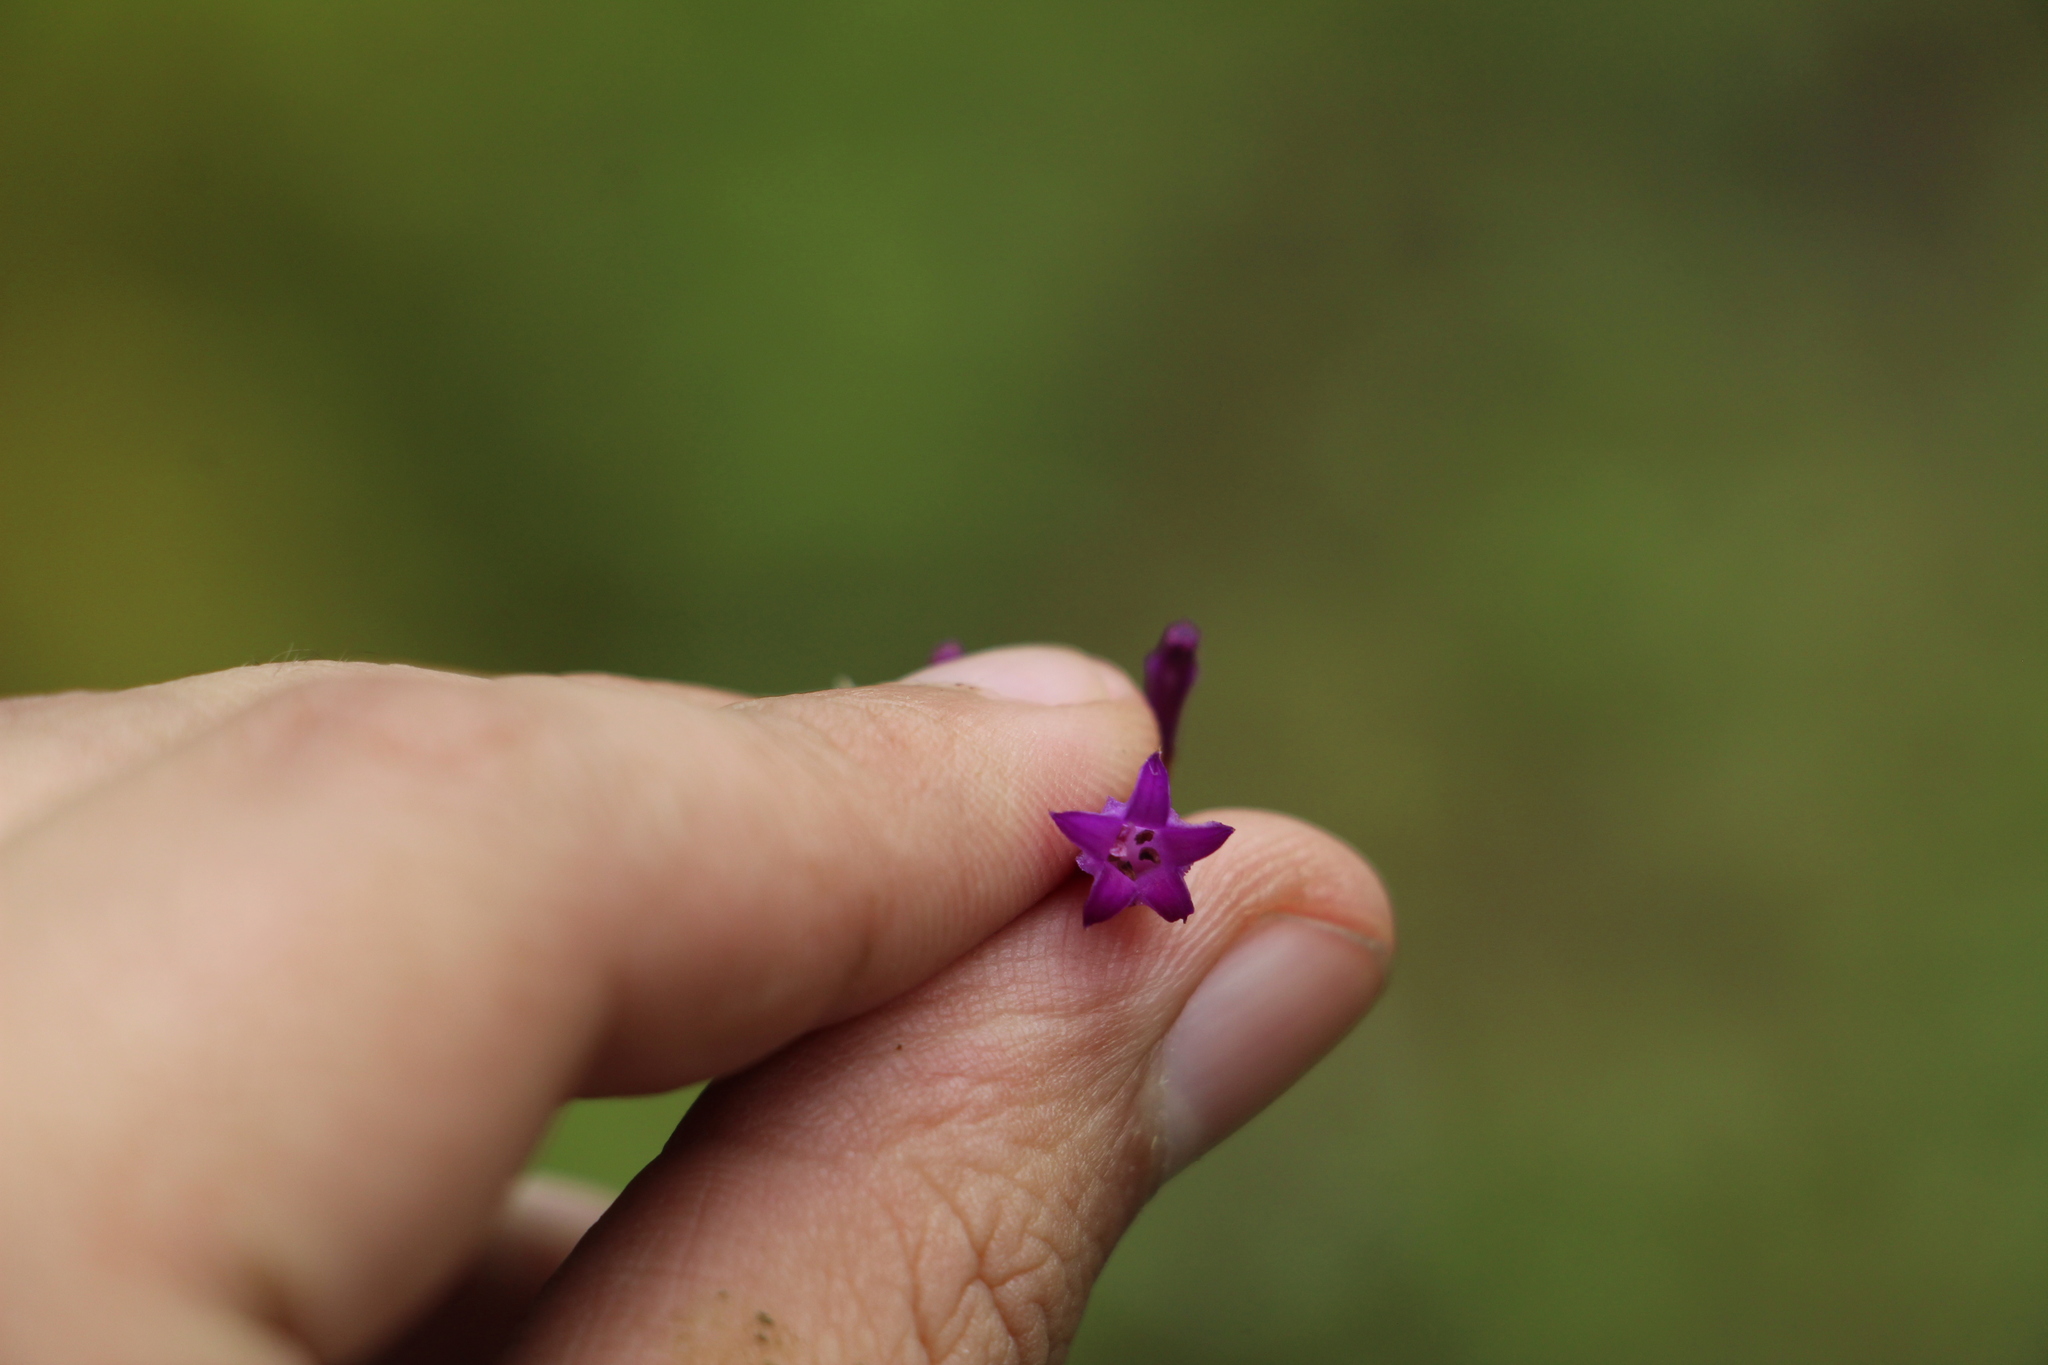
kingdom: Plantae
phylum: Tracheophyta
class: Magnoliopsida
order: Gentianales
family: Rubiaceae
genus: Palicourea
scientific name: Palicourea angustifolia
